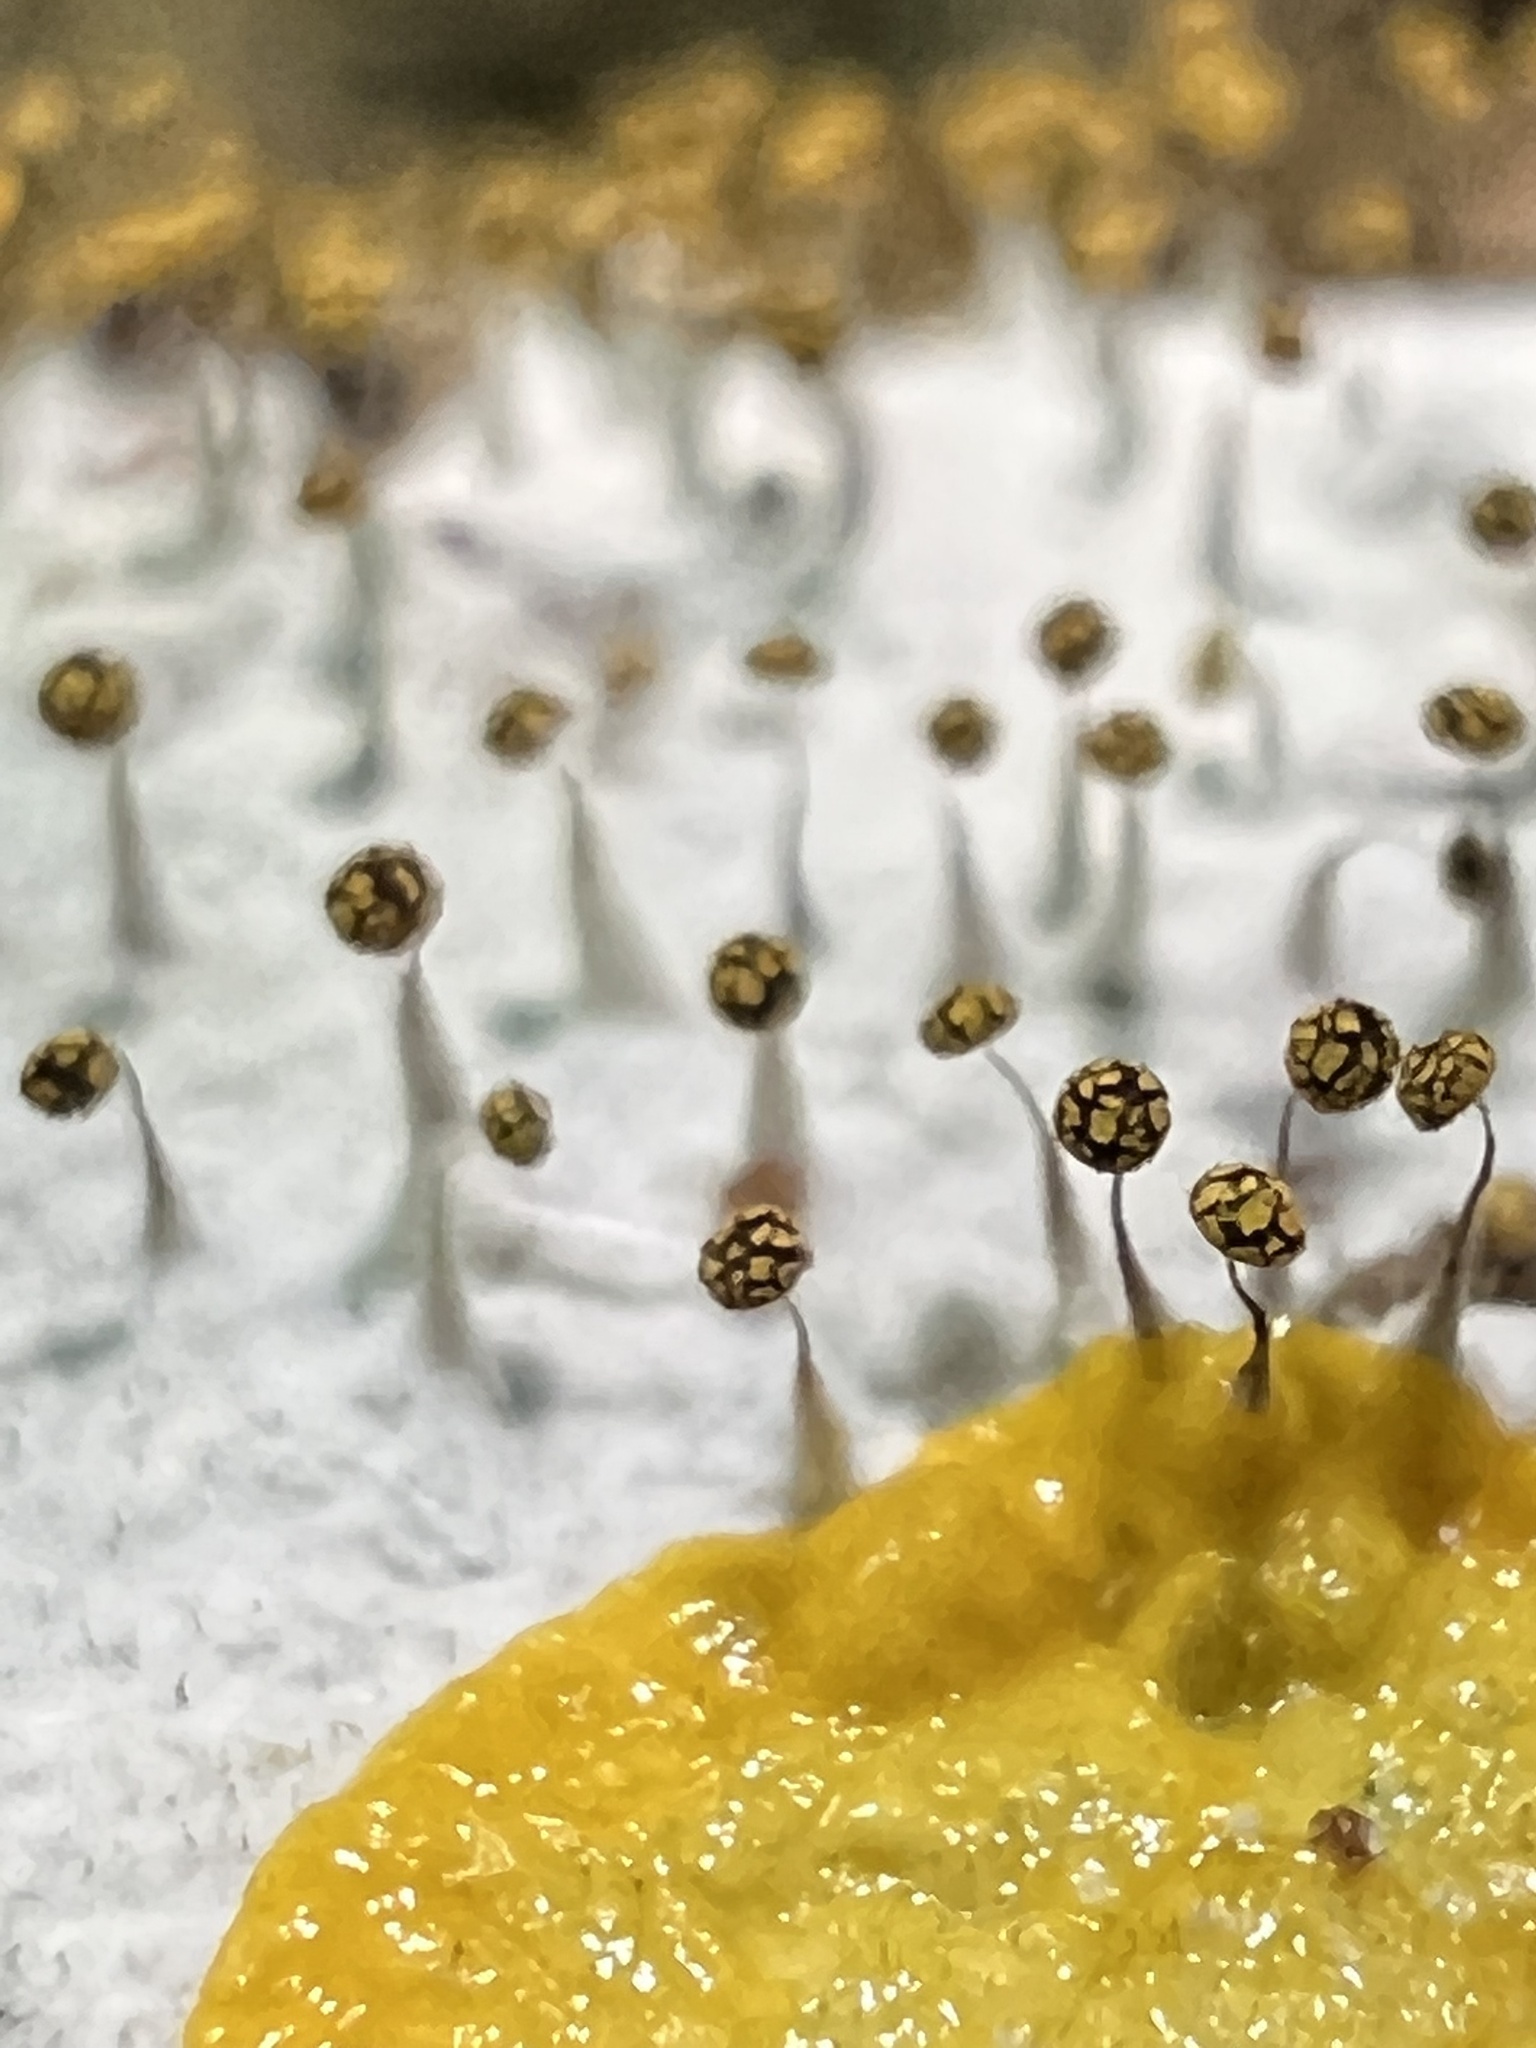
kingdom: Protozoa
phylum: Mycetozoa
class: Myxomycetes
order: Physarales
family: Physaraceae
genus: Physarum
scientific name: Physarum viride
